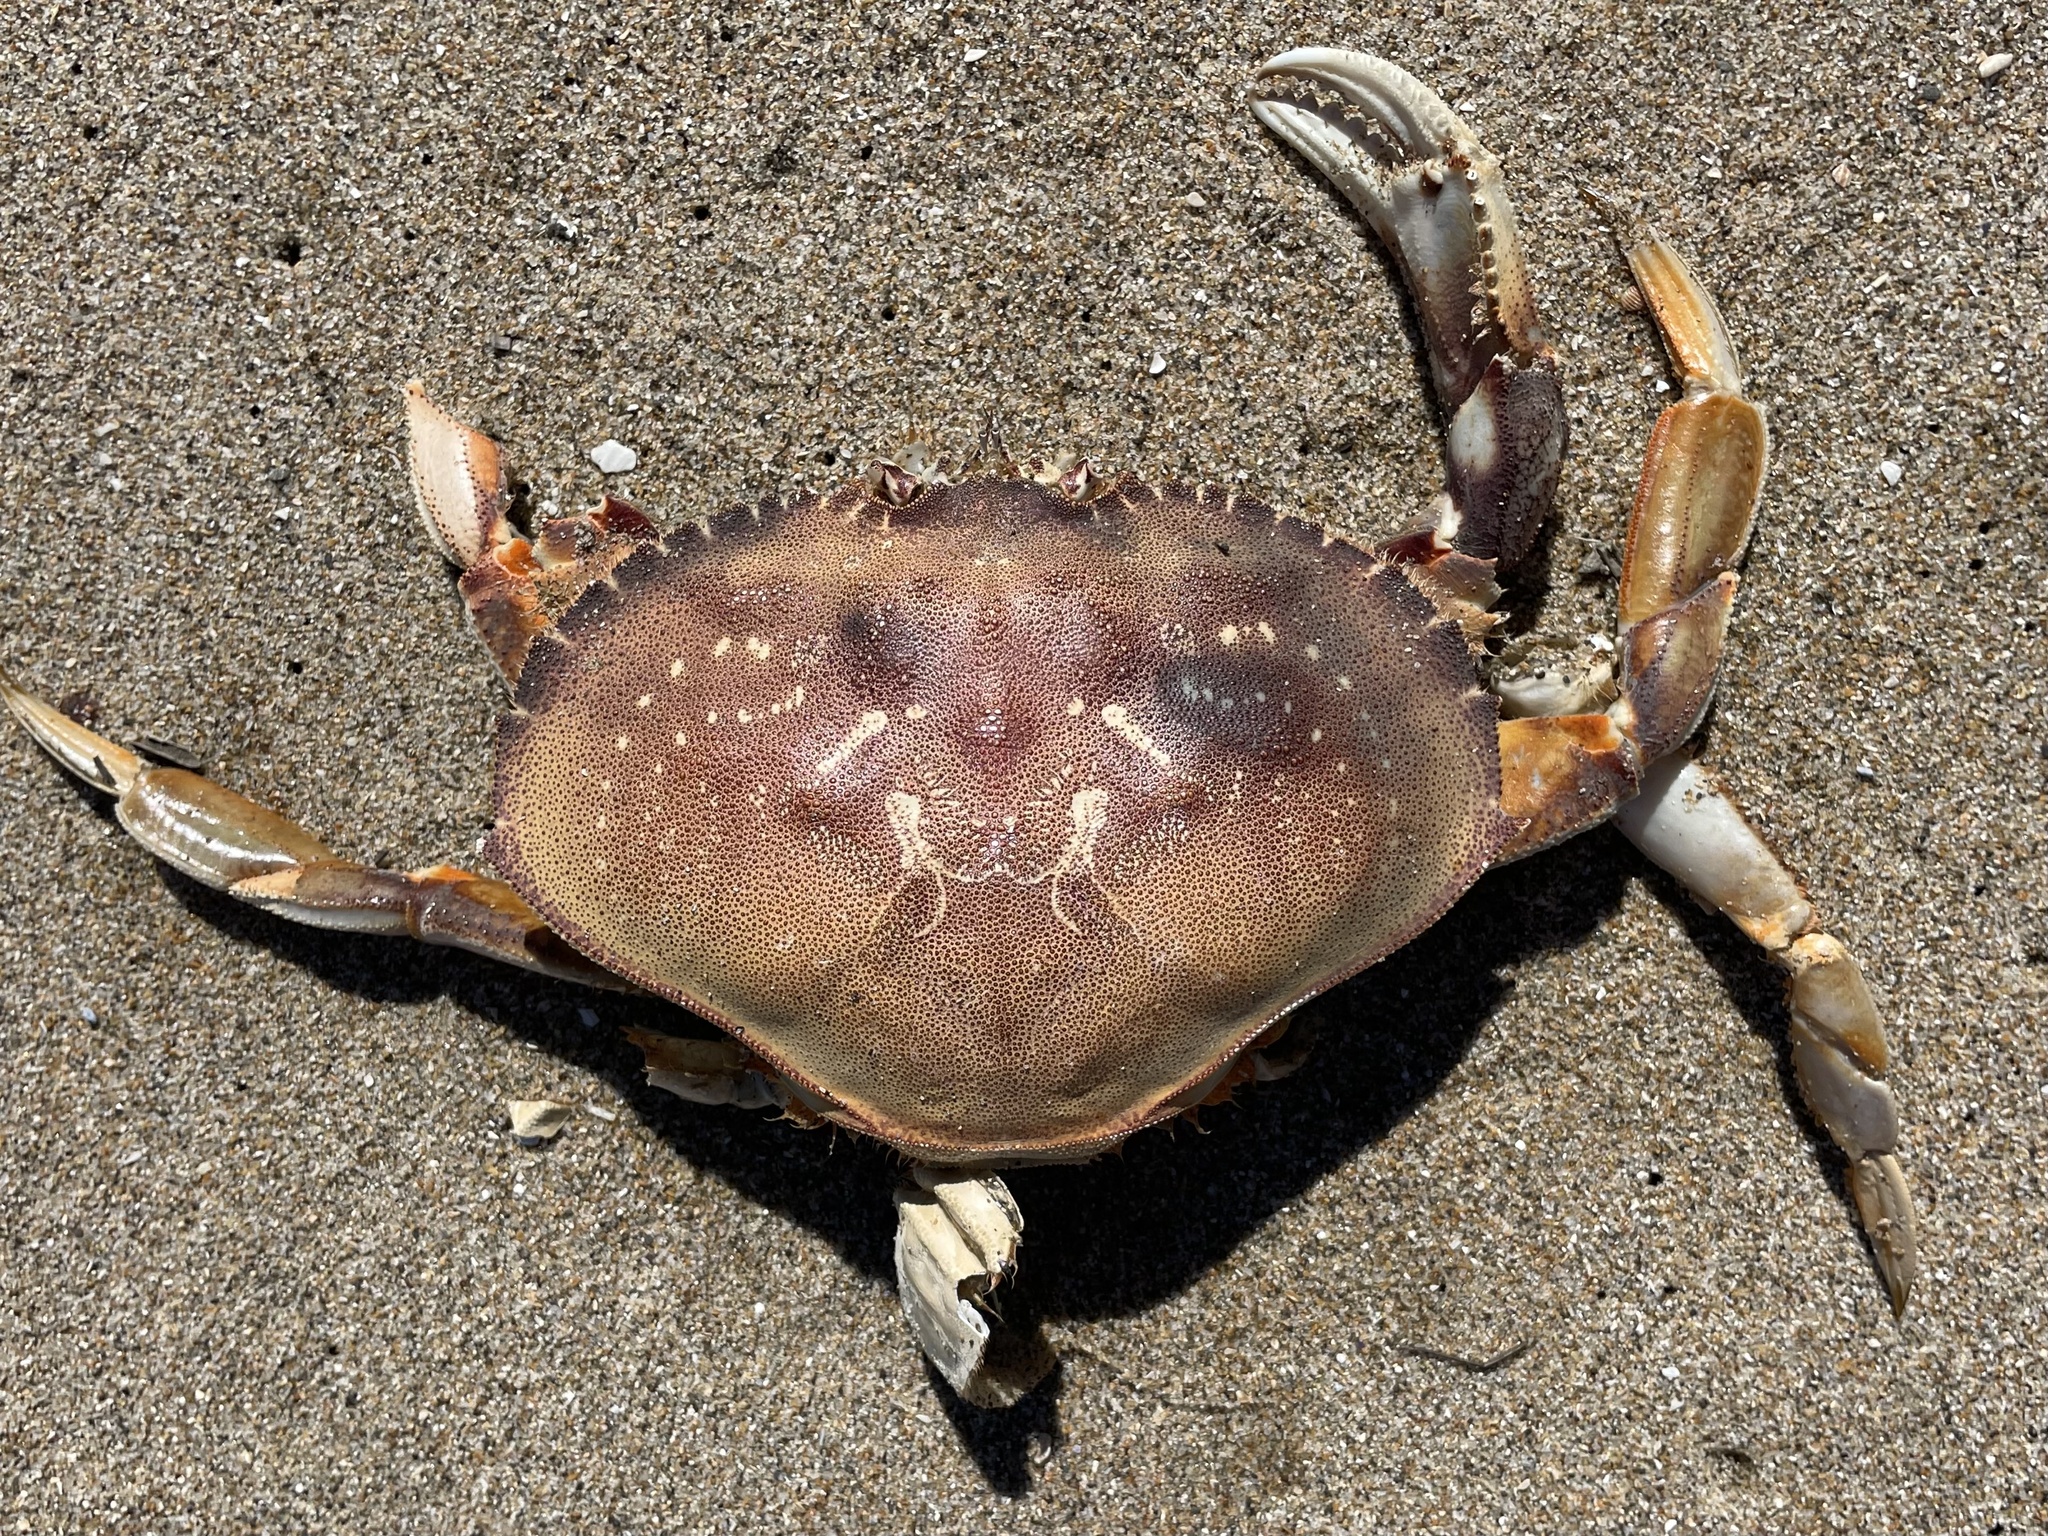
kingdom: Animalia
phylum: Arthropoda
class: Malacostraca
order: Decapoda
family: Cancridae
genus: Metacarcinus
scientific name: Metacarcinus magister
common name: Californian crab
